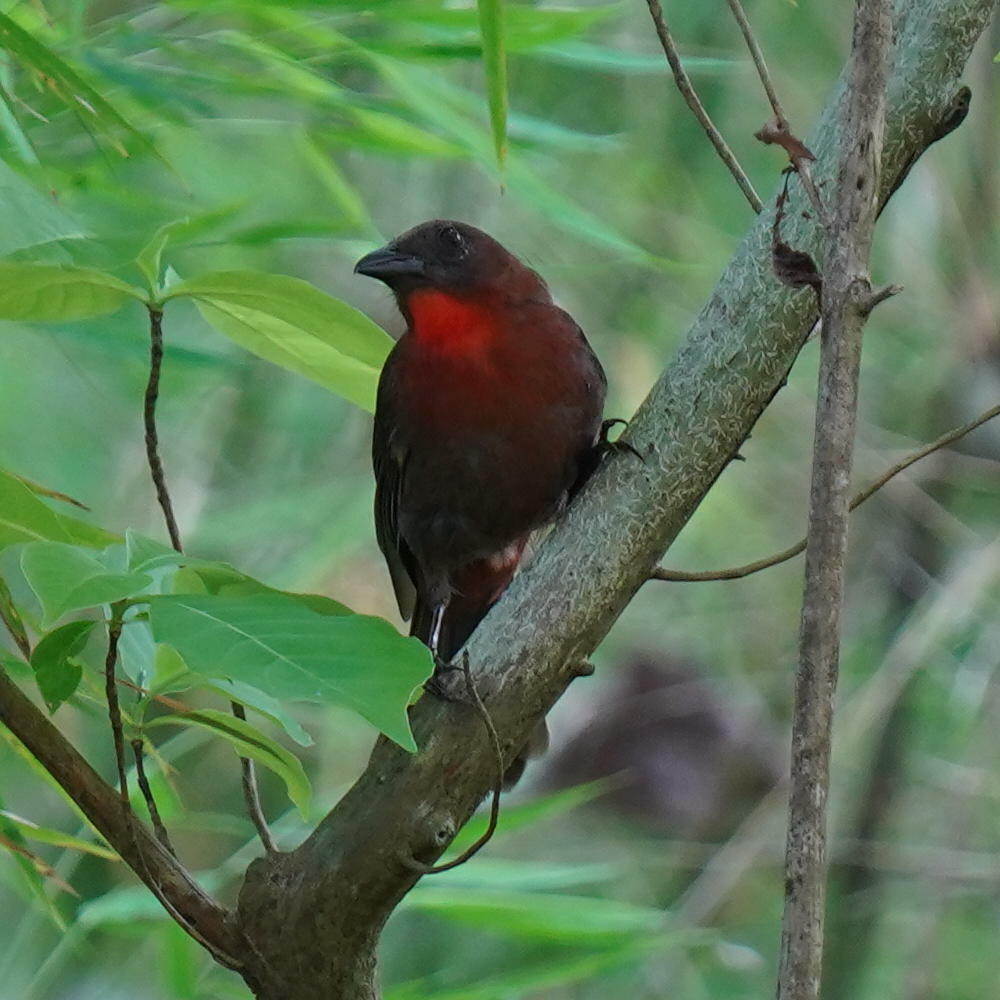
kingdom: Animalia
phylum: Chordata
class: Aves
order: Passeriformes
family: Cardinalidae
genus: Habia
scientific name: Habia fuscicauda
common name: Red-throated ant-tanager
